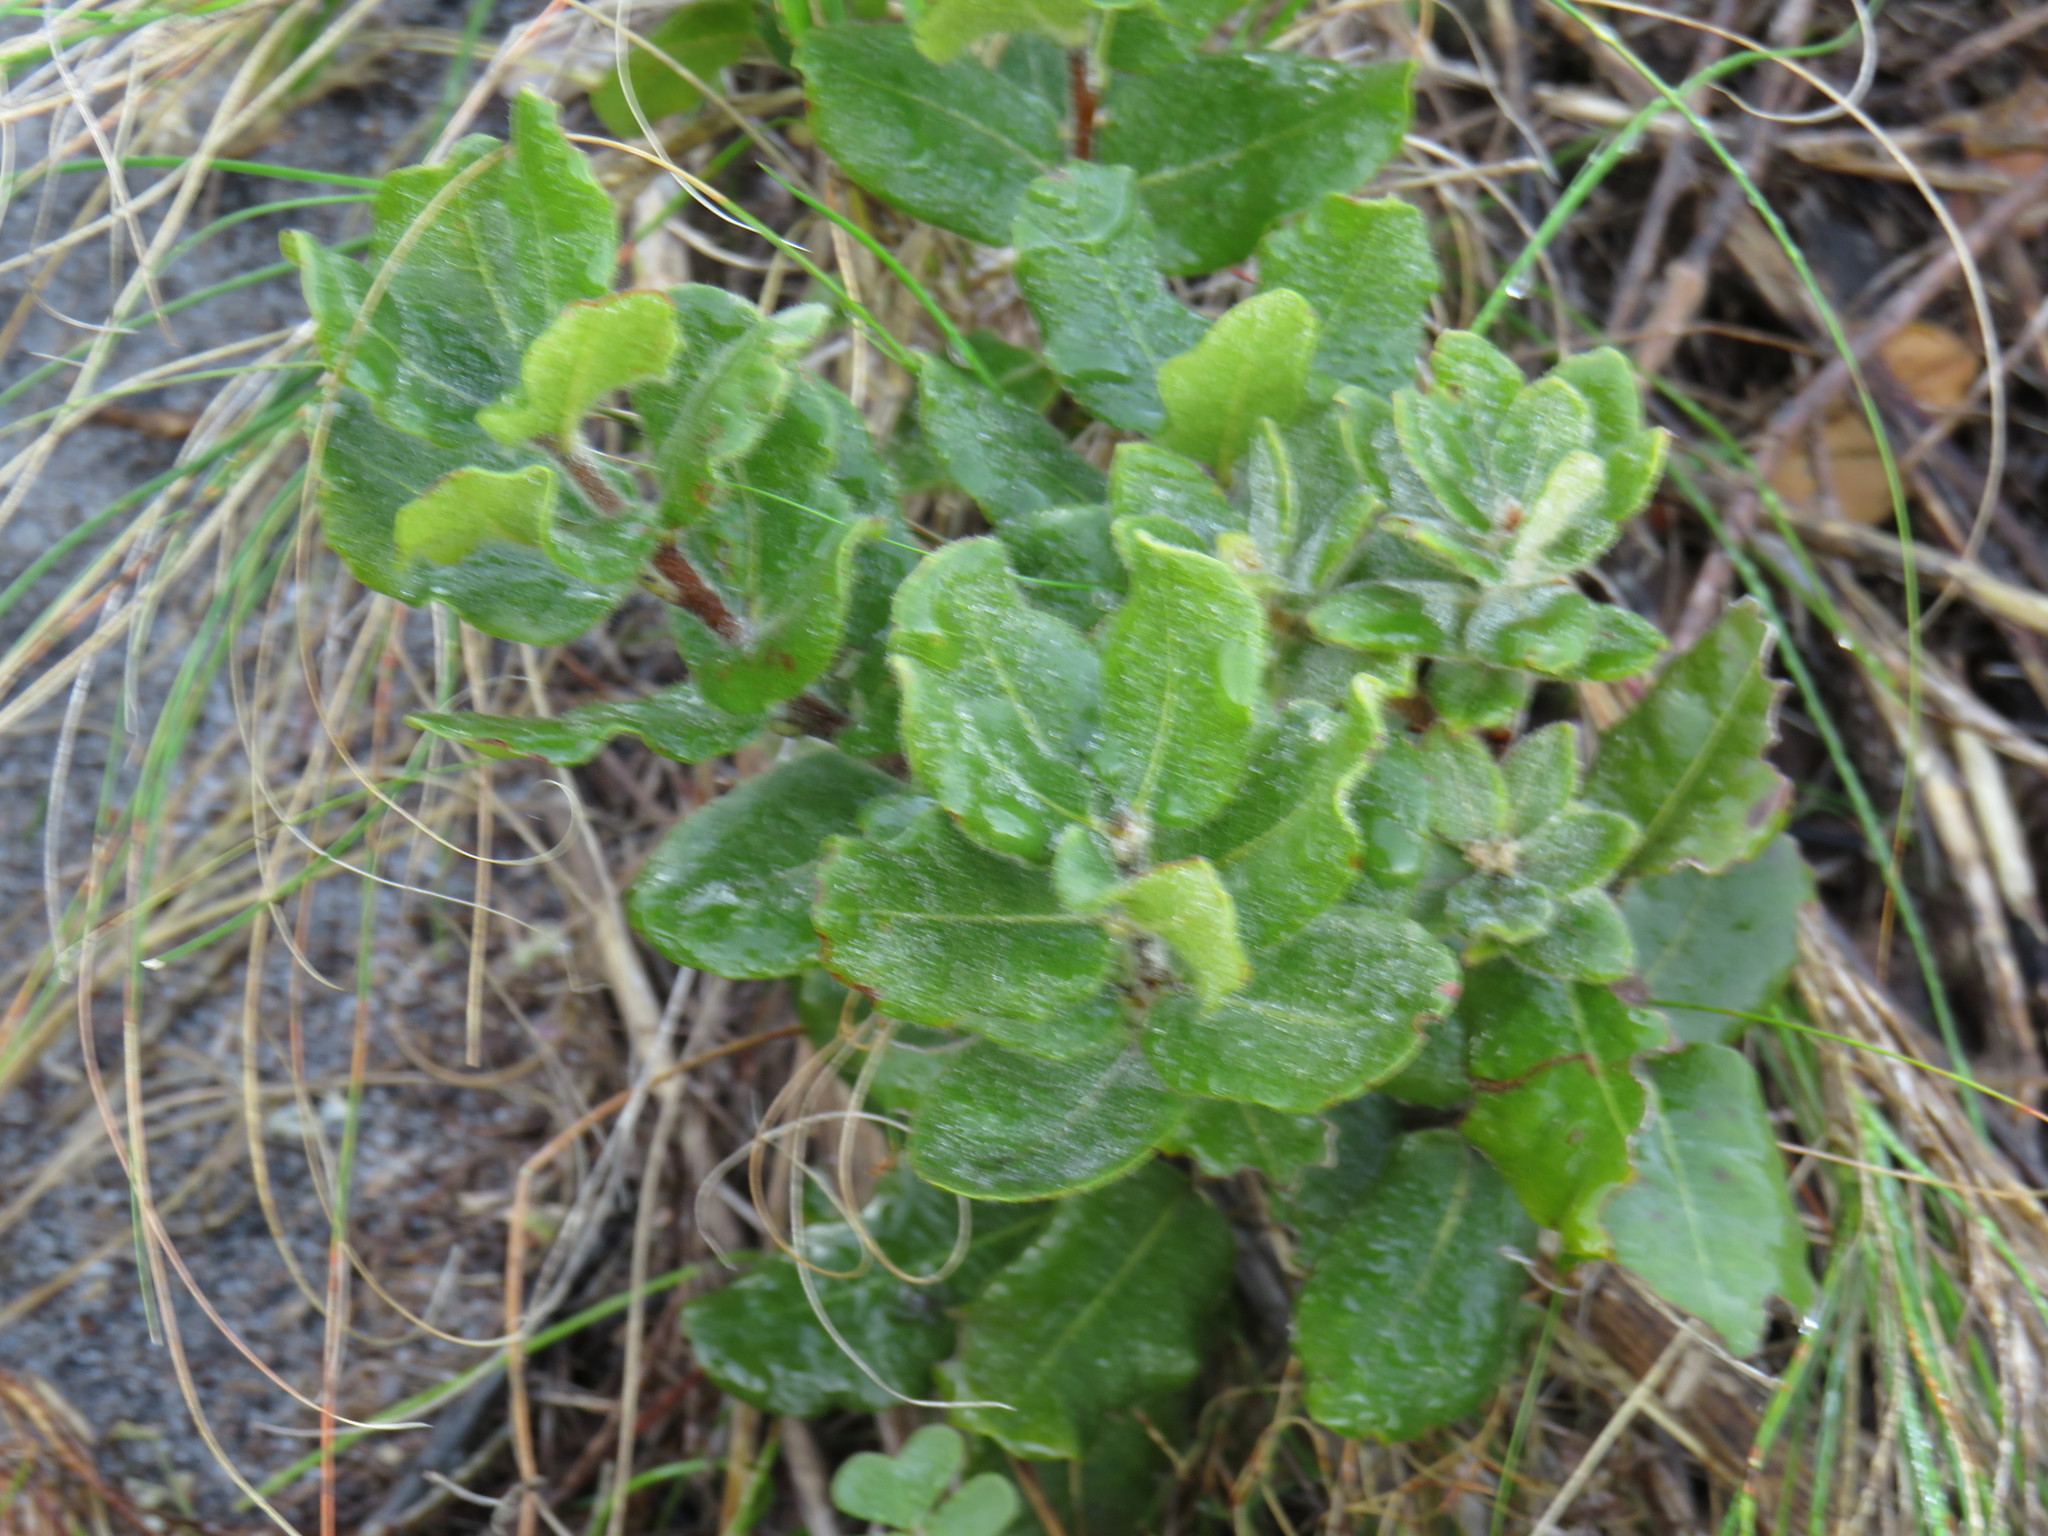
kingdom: Plantae
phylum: Tracheophyta
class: Magnoliopsida
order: Fagales
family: Myricaceae
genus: Morella
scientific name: Morella kraussiana
